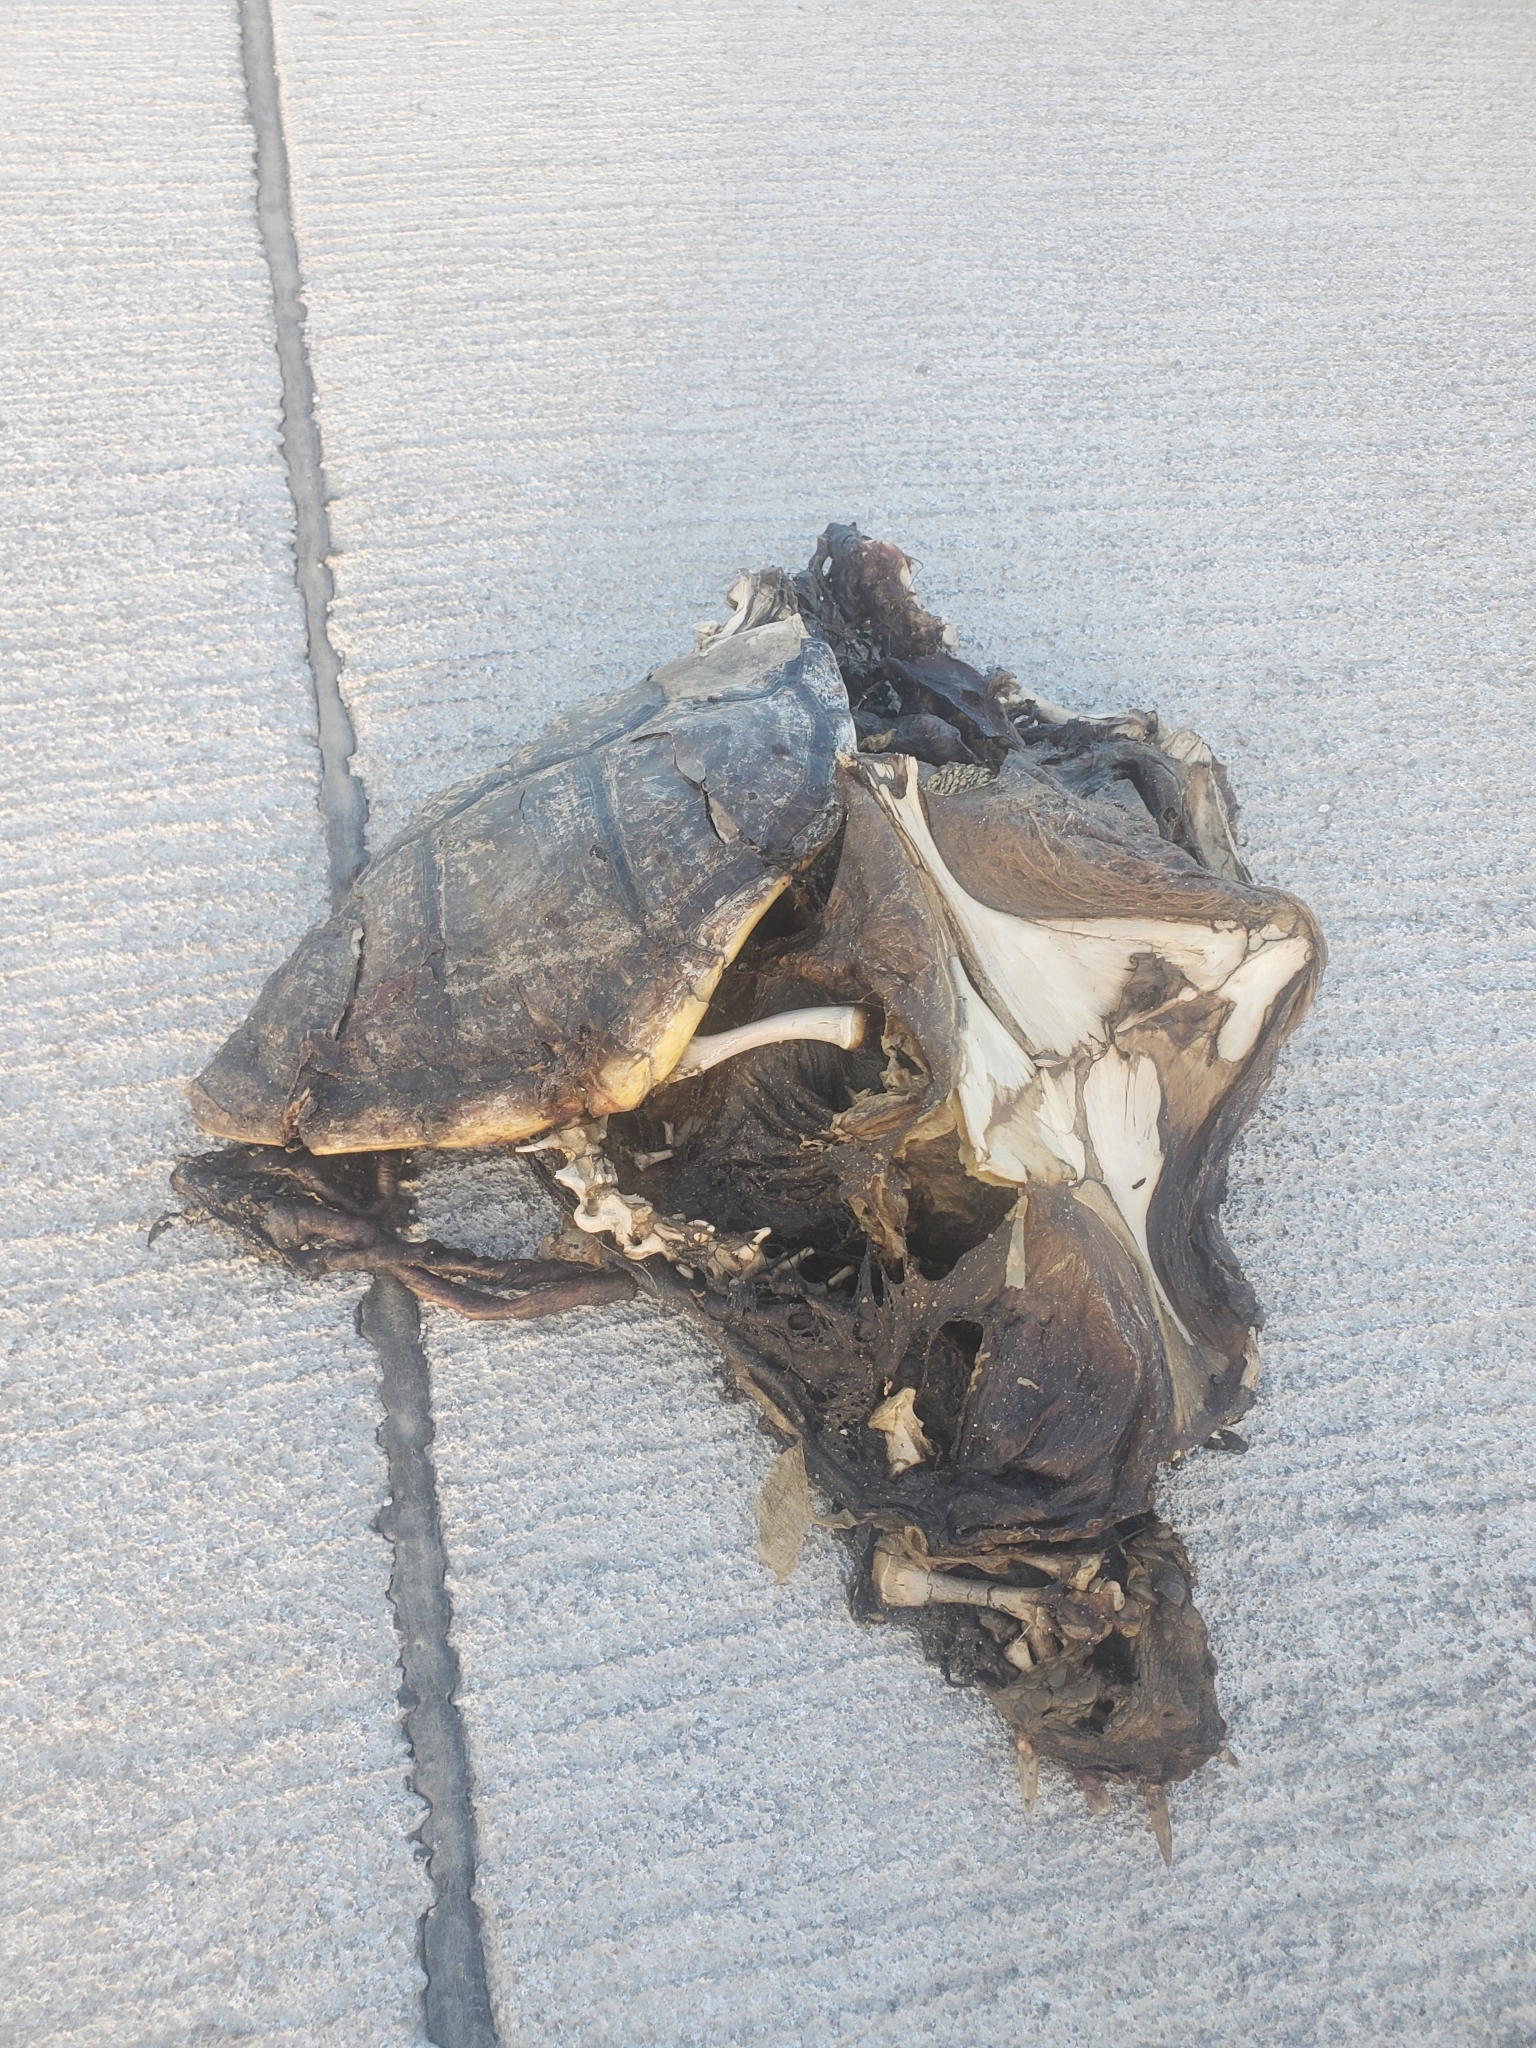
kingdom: Animalia
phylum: Chordata
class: Testudines
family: Chelydridae
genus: Chelydra
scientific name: Chelydra serpentina
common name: Common snapping turtle
